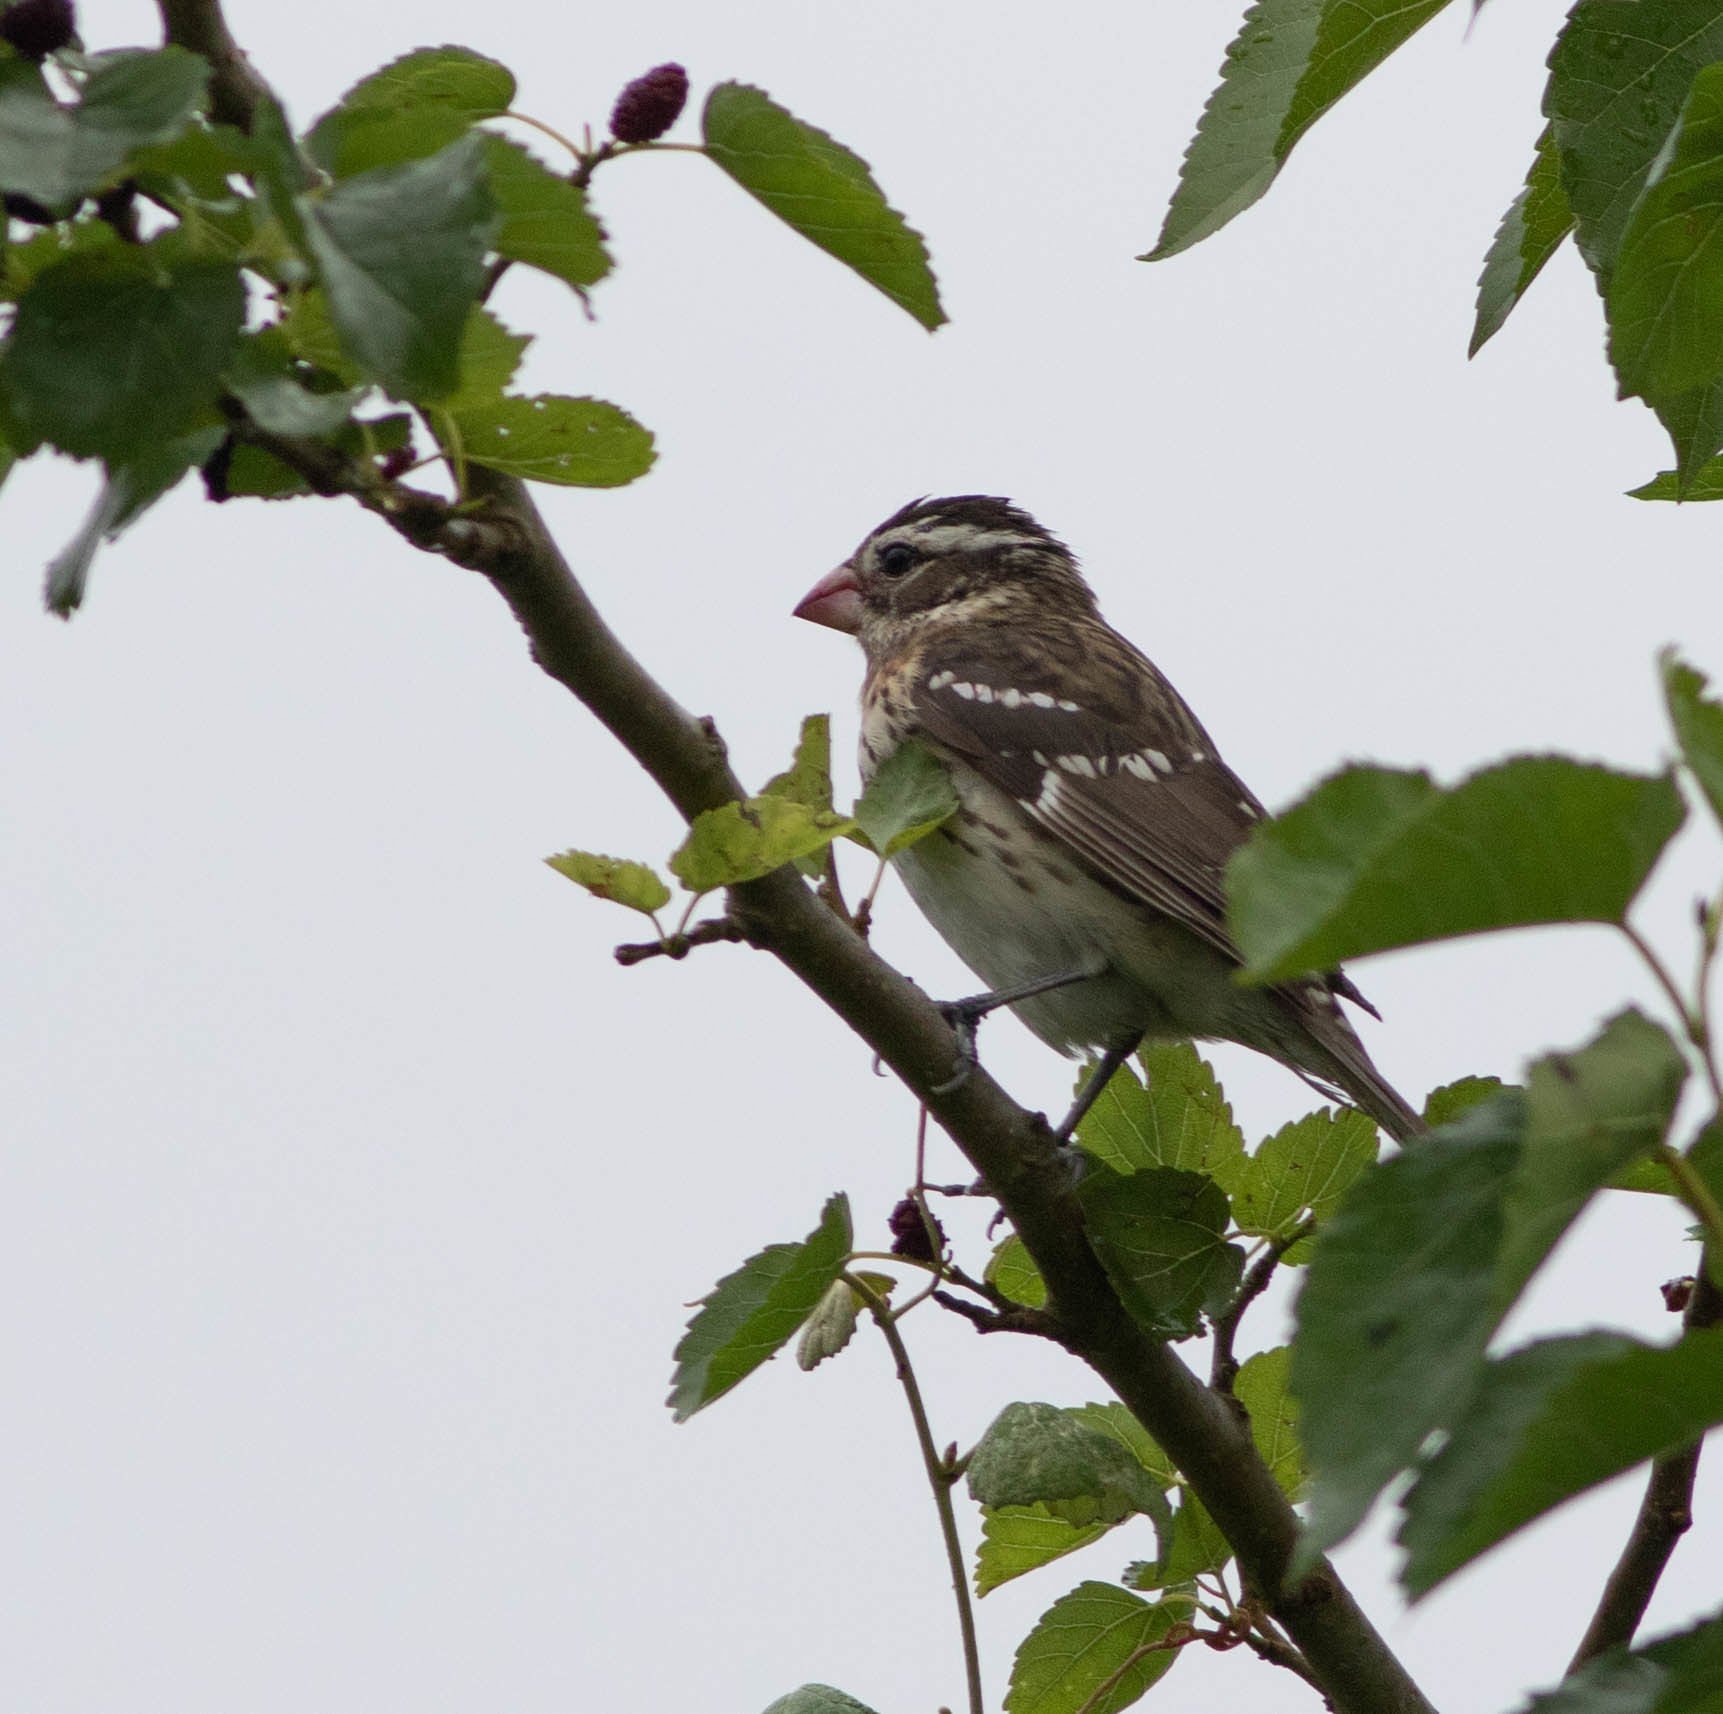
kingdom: Animalia
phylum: Chordata
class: Aves
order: Passeriformes
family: Cardinalidae
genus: Pheucticus
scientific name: Pheucticus ludovicianus
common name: Rose-breasted grosbeak
